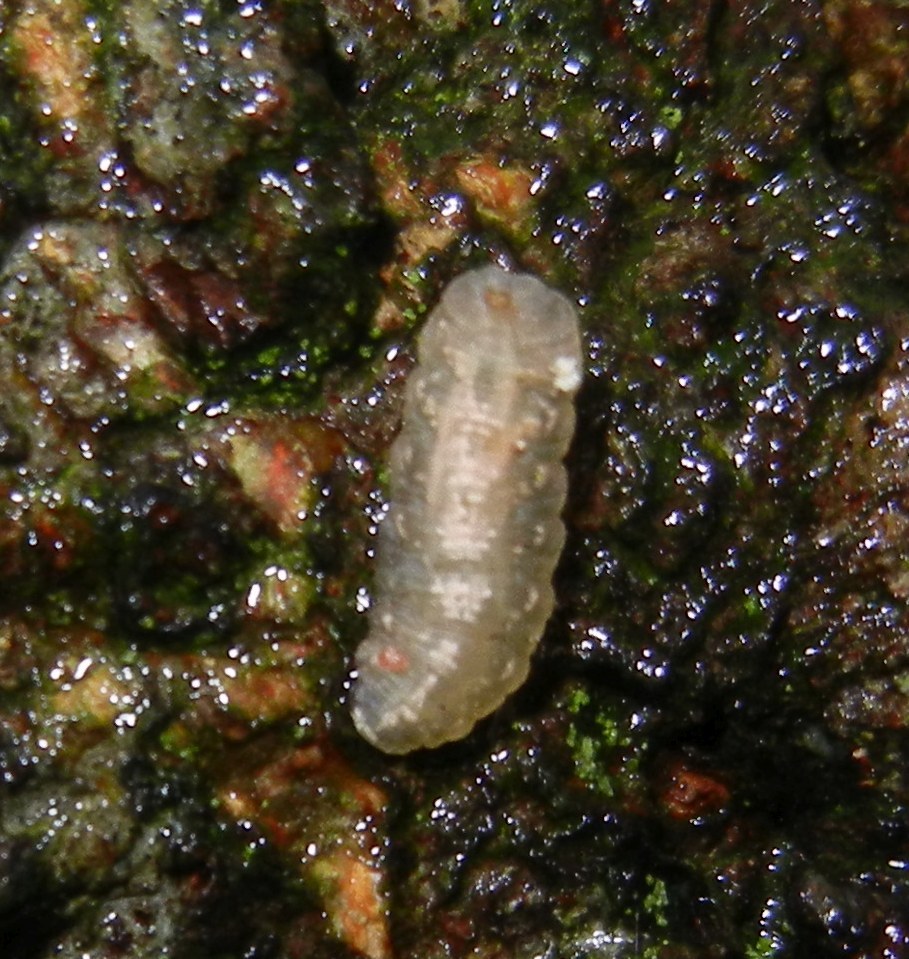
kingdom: Animalia
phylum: Arthropoda
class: Insecta
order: Diptera
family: Syrphidae
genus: Fagisyrphus
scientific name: Fagisyrphus cincta
